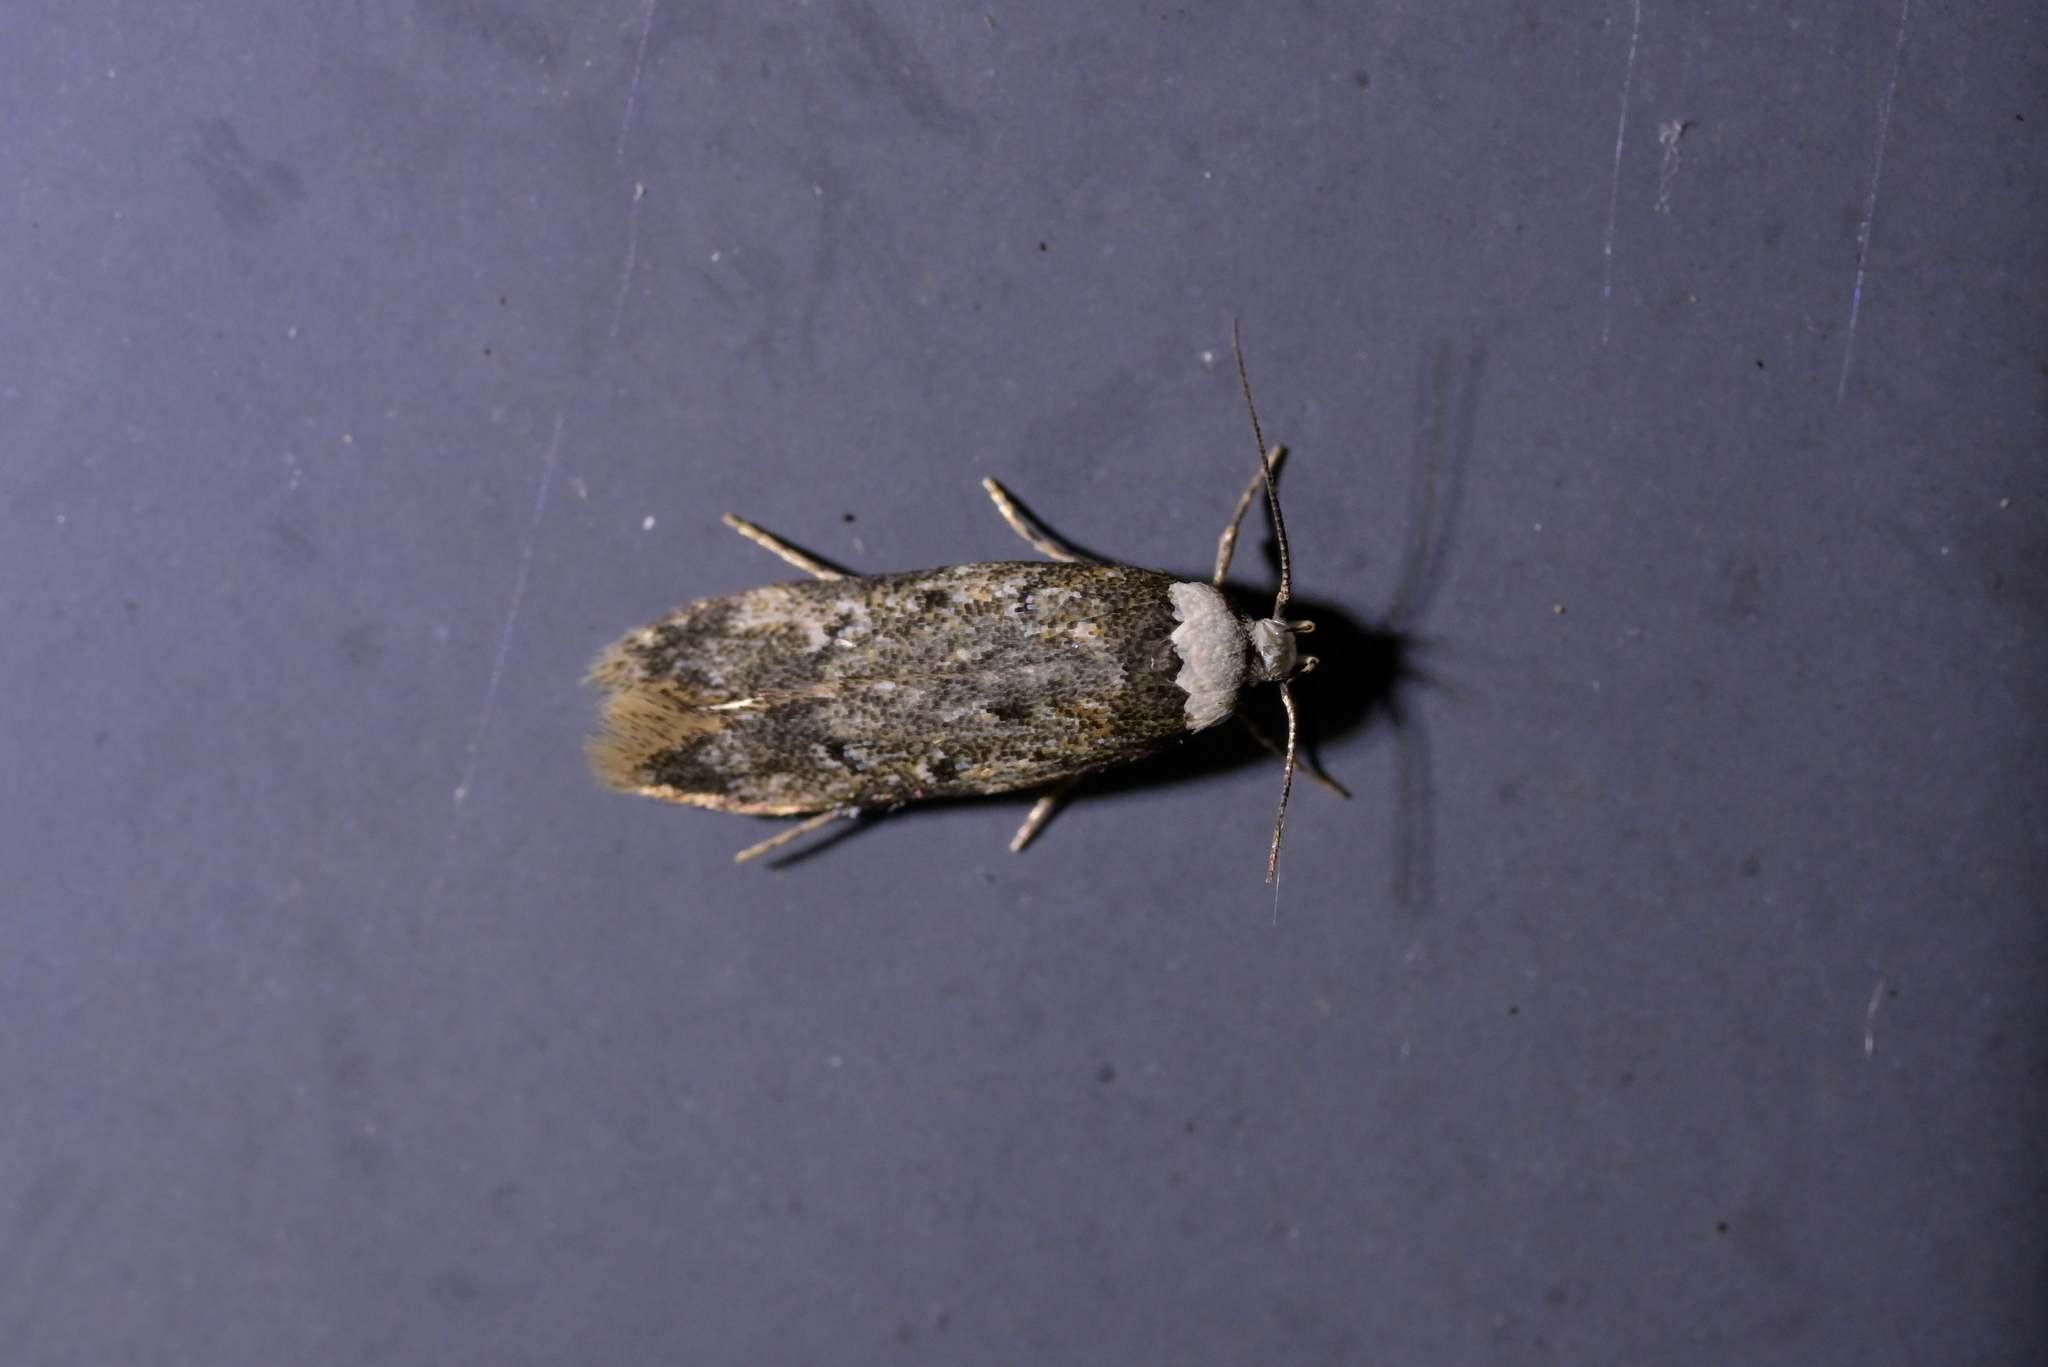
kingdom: Animalia
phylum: Arthropoda
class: Insecta
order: Lepidoptera
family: Oecophoridae
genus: Endrosis
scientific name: Endrosis sarcitrella
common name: White-shouldered house moth
